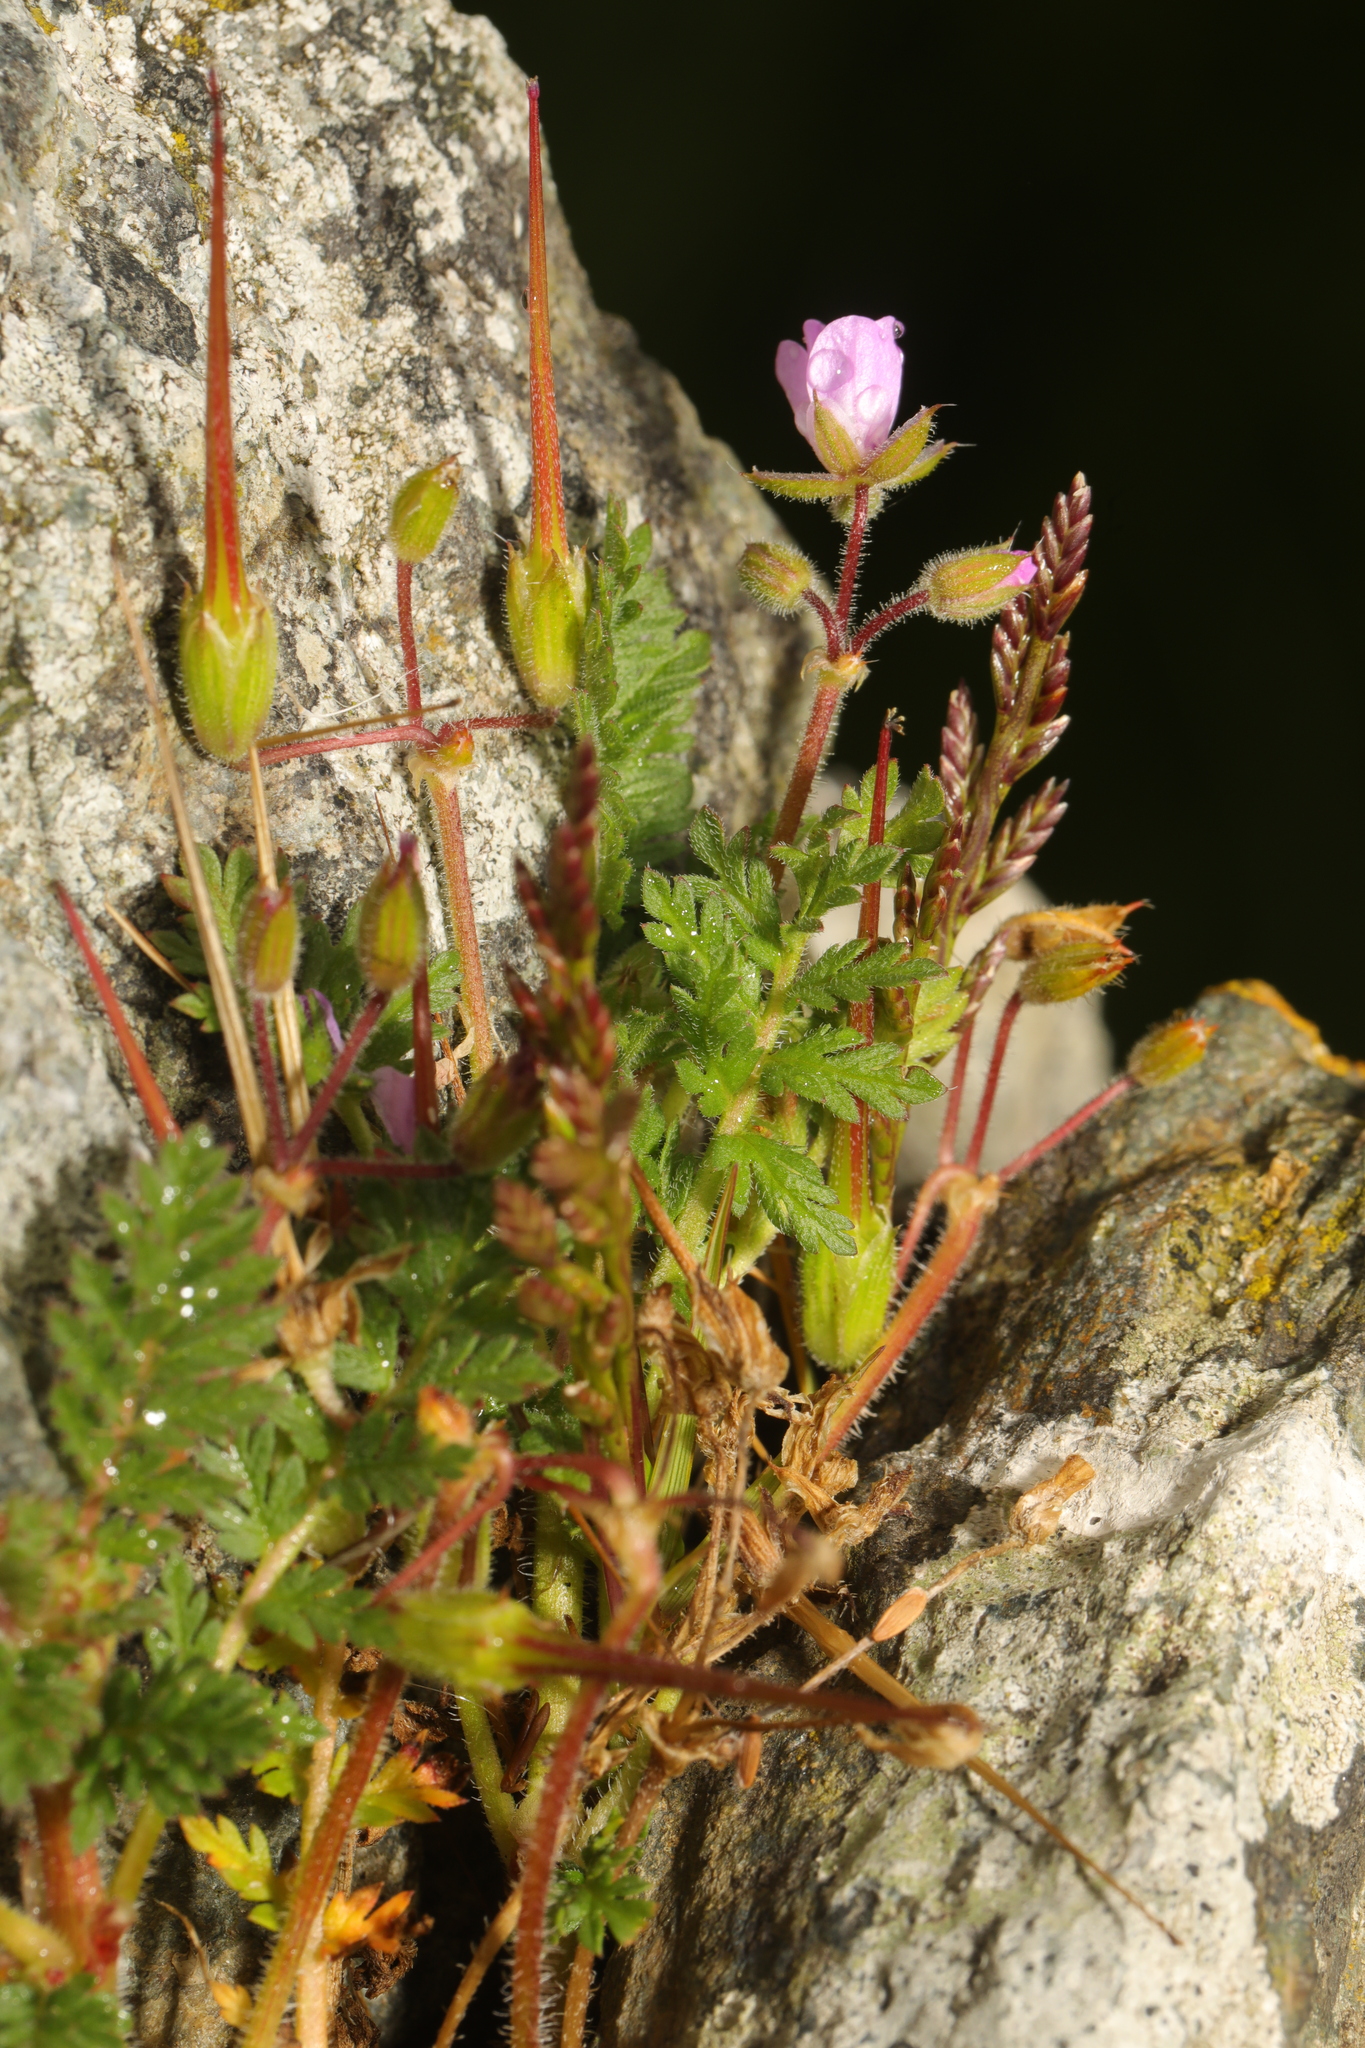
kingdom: Plantae
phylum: Tracheophyta
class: Magnoliopsida
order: Geraniales
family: Geraniaceae
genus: Erodium
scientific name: Erodium cicutarium
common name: Common stork's-bill
